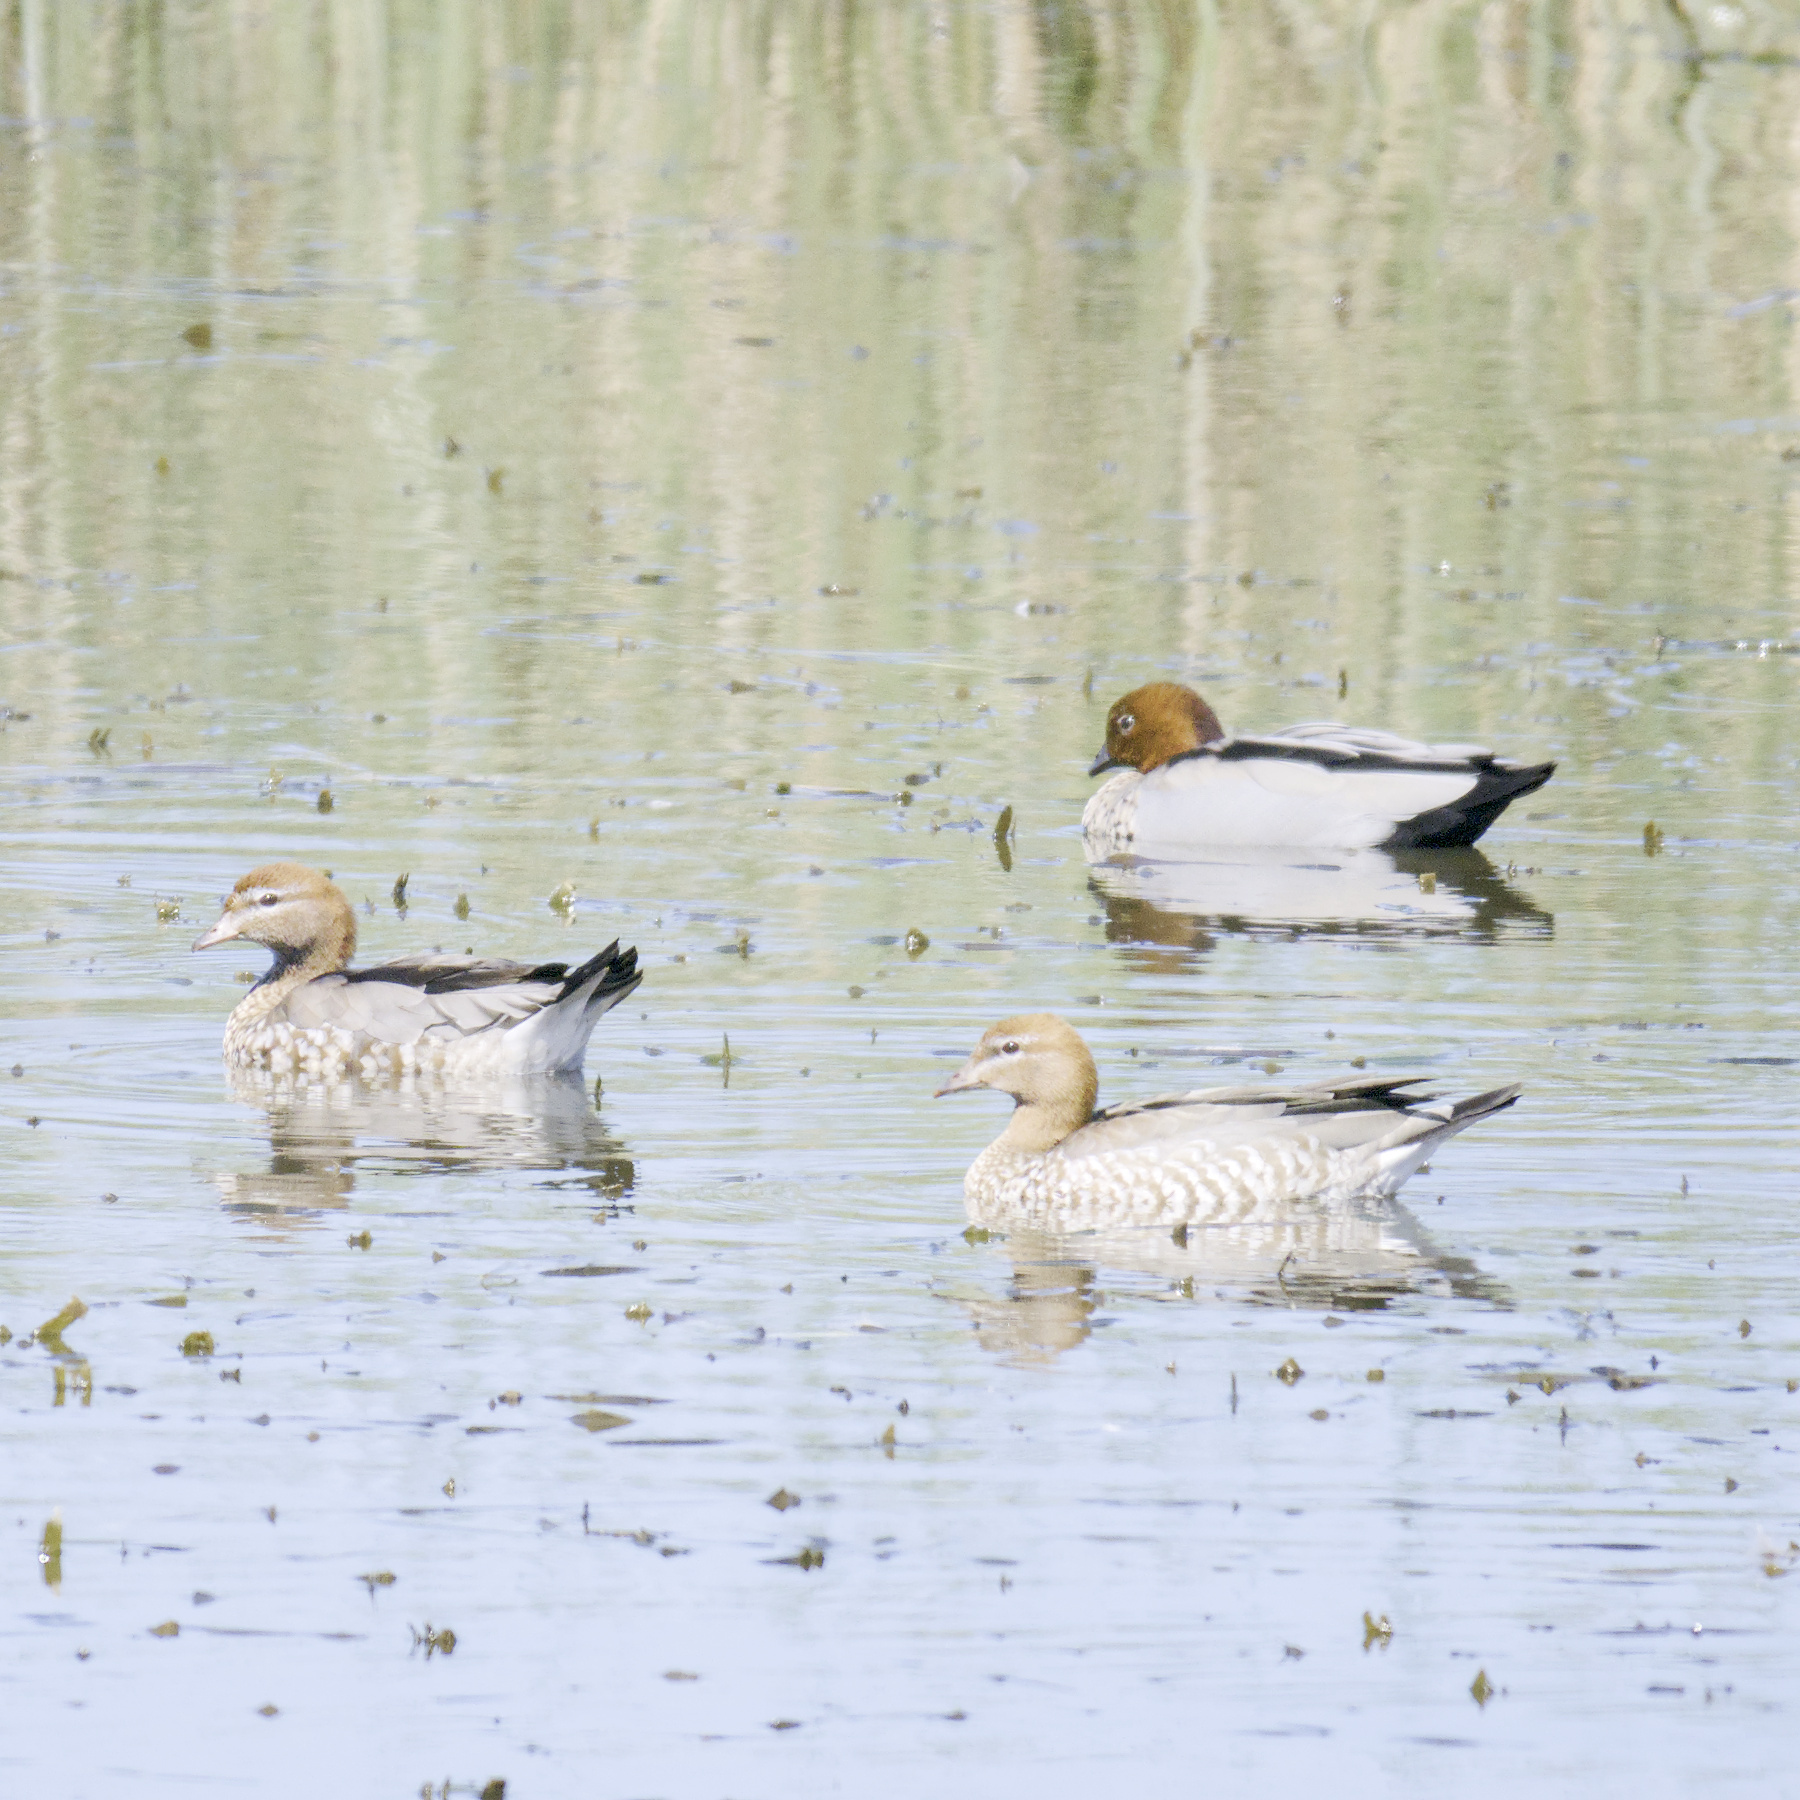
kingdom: Animalia
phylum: Chordata
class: Aves
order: Anseriformes
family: Anatidae
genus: Chenonetta
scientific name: Chenonetta jubata
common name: Maned duck
